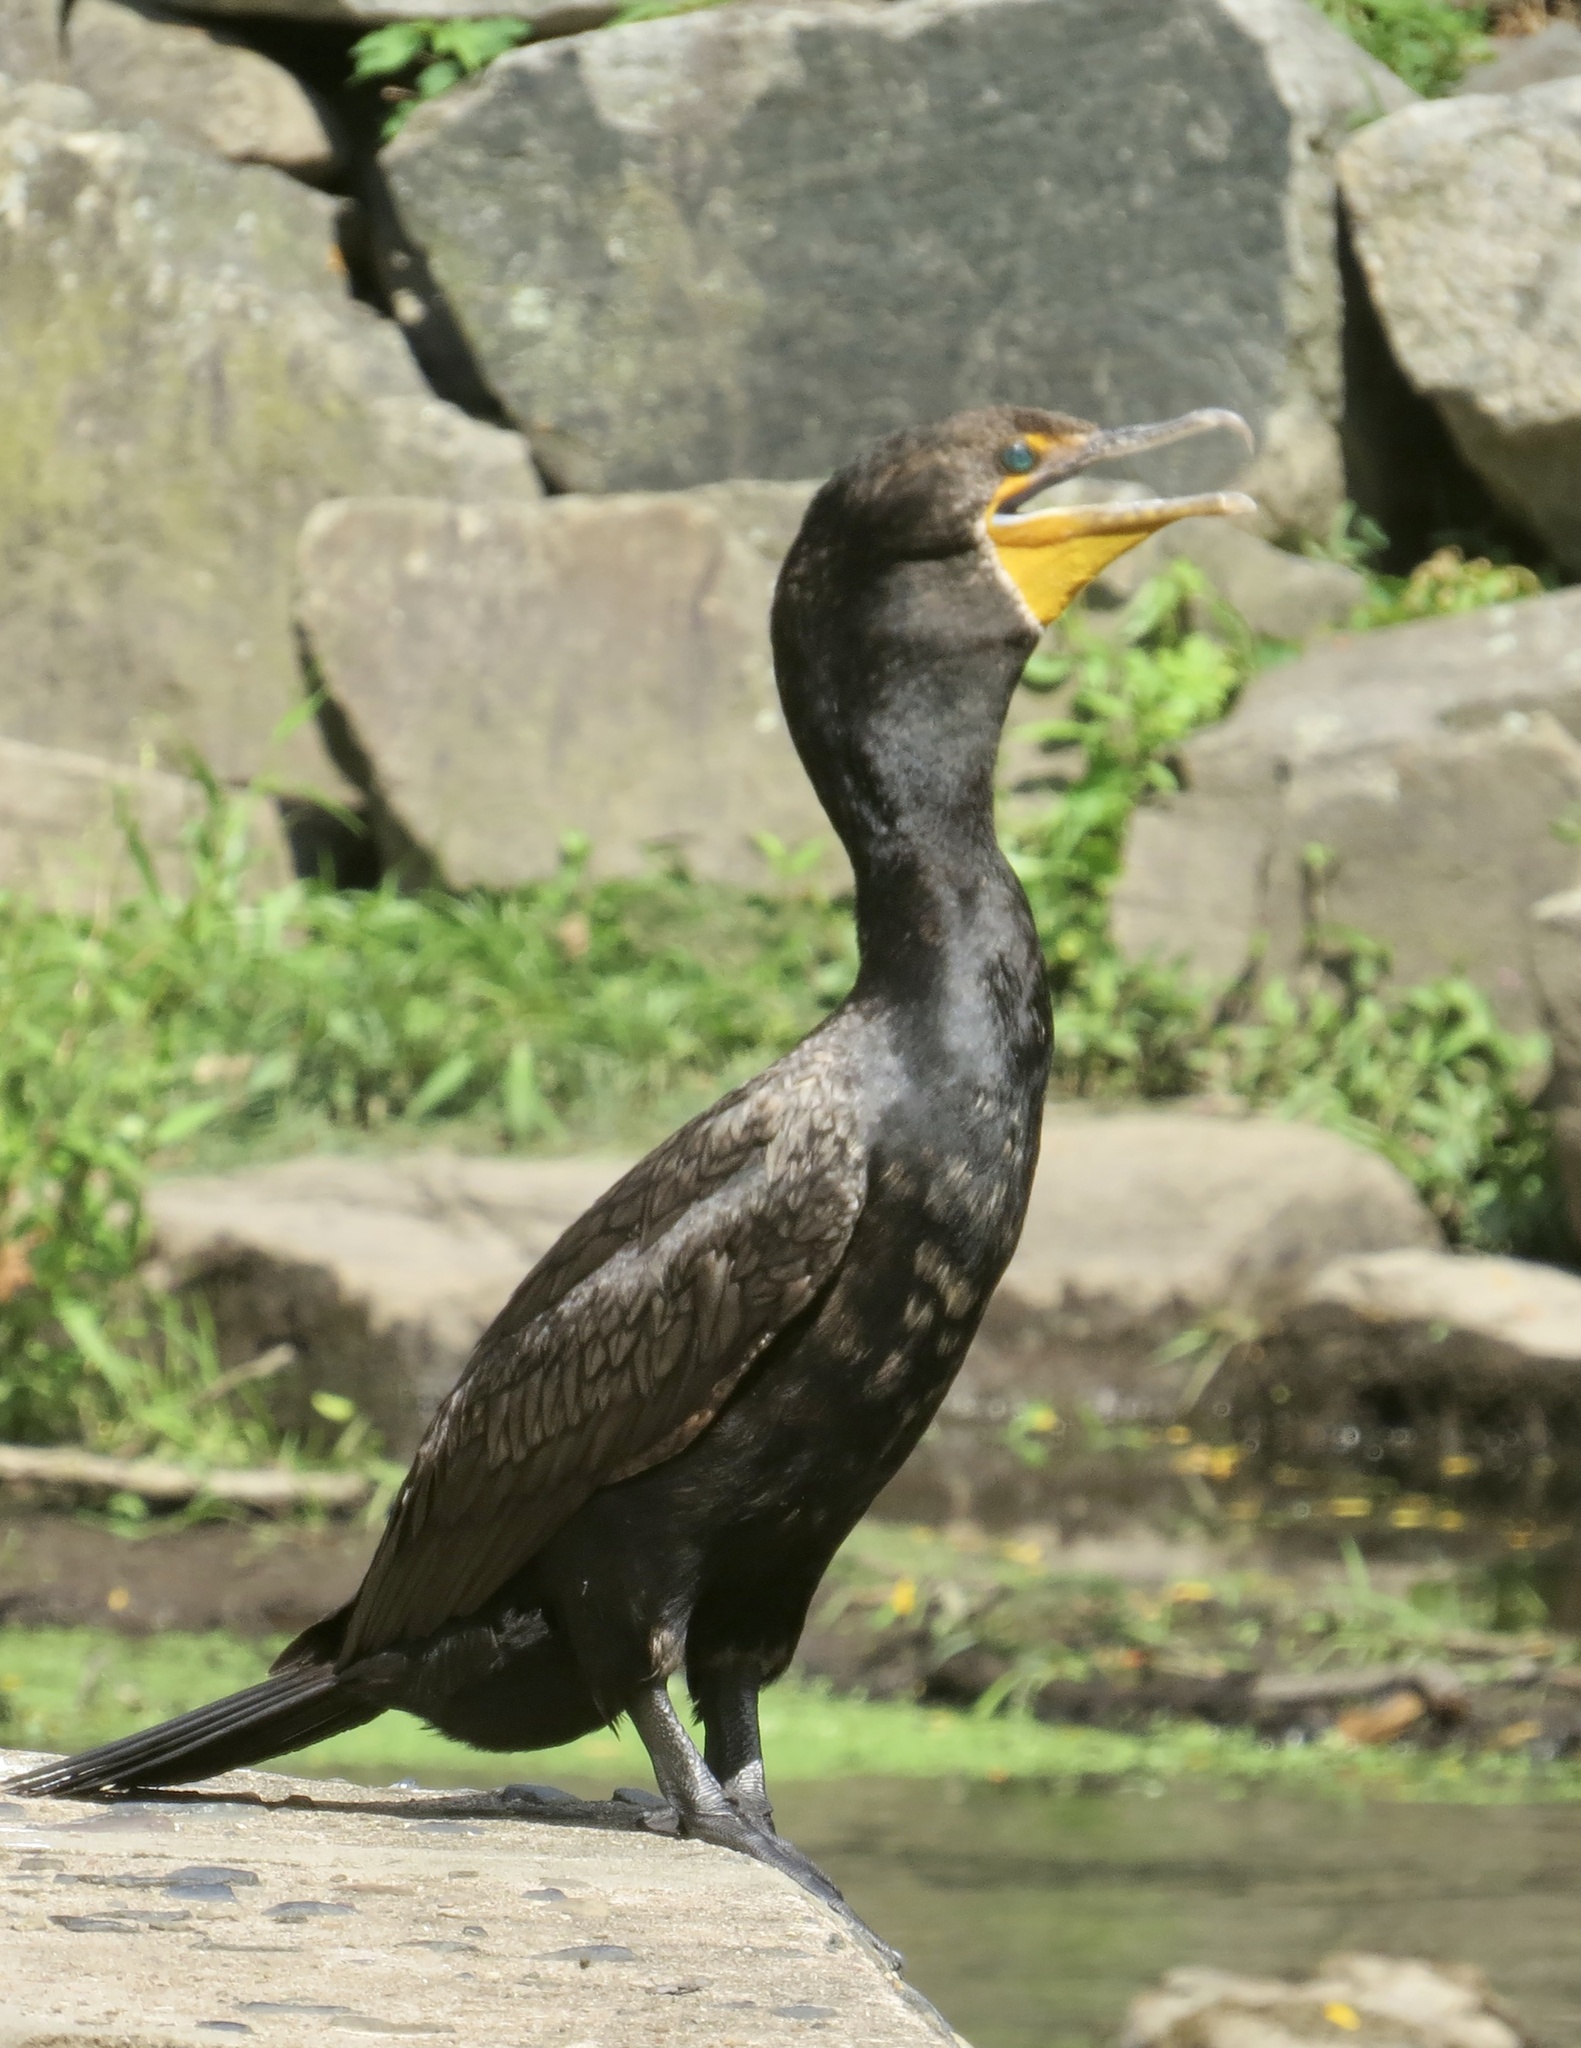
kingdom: Animalia
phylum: Chordata
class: Aves
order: Suliformes
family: Phalacrocoracidae
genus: Phalacrocorax
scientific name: Phalacrocorax auritus
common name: Double-crested cormorant
